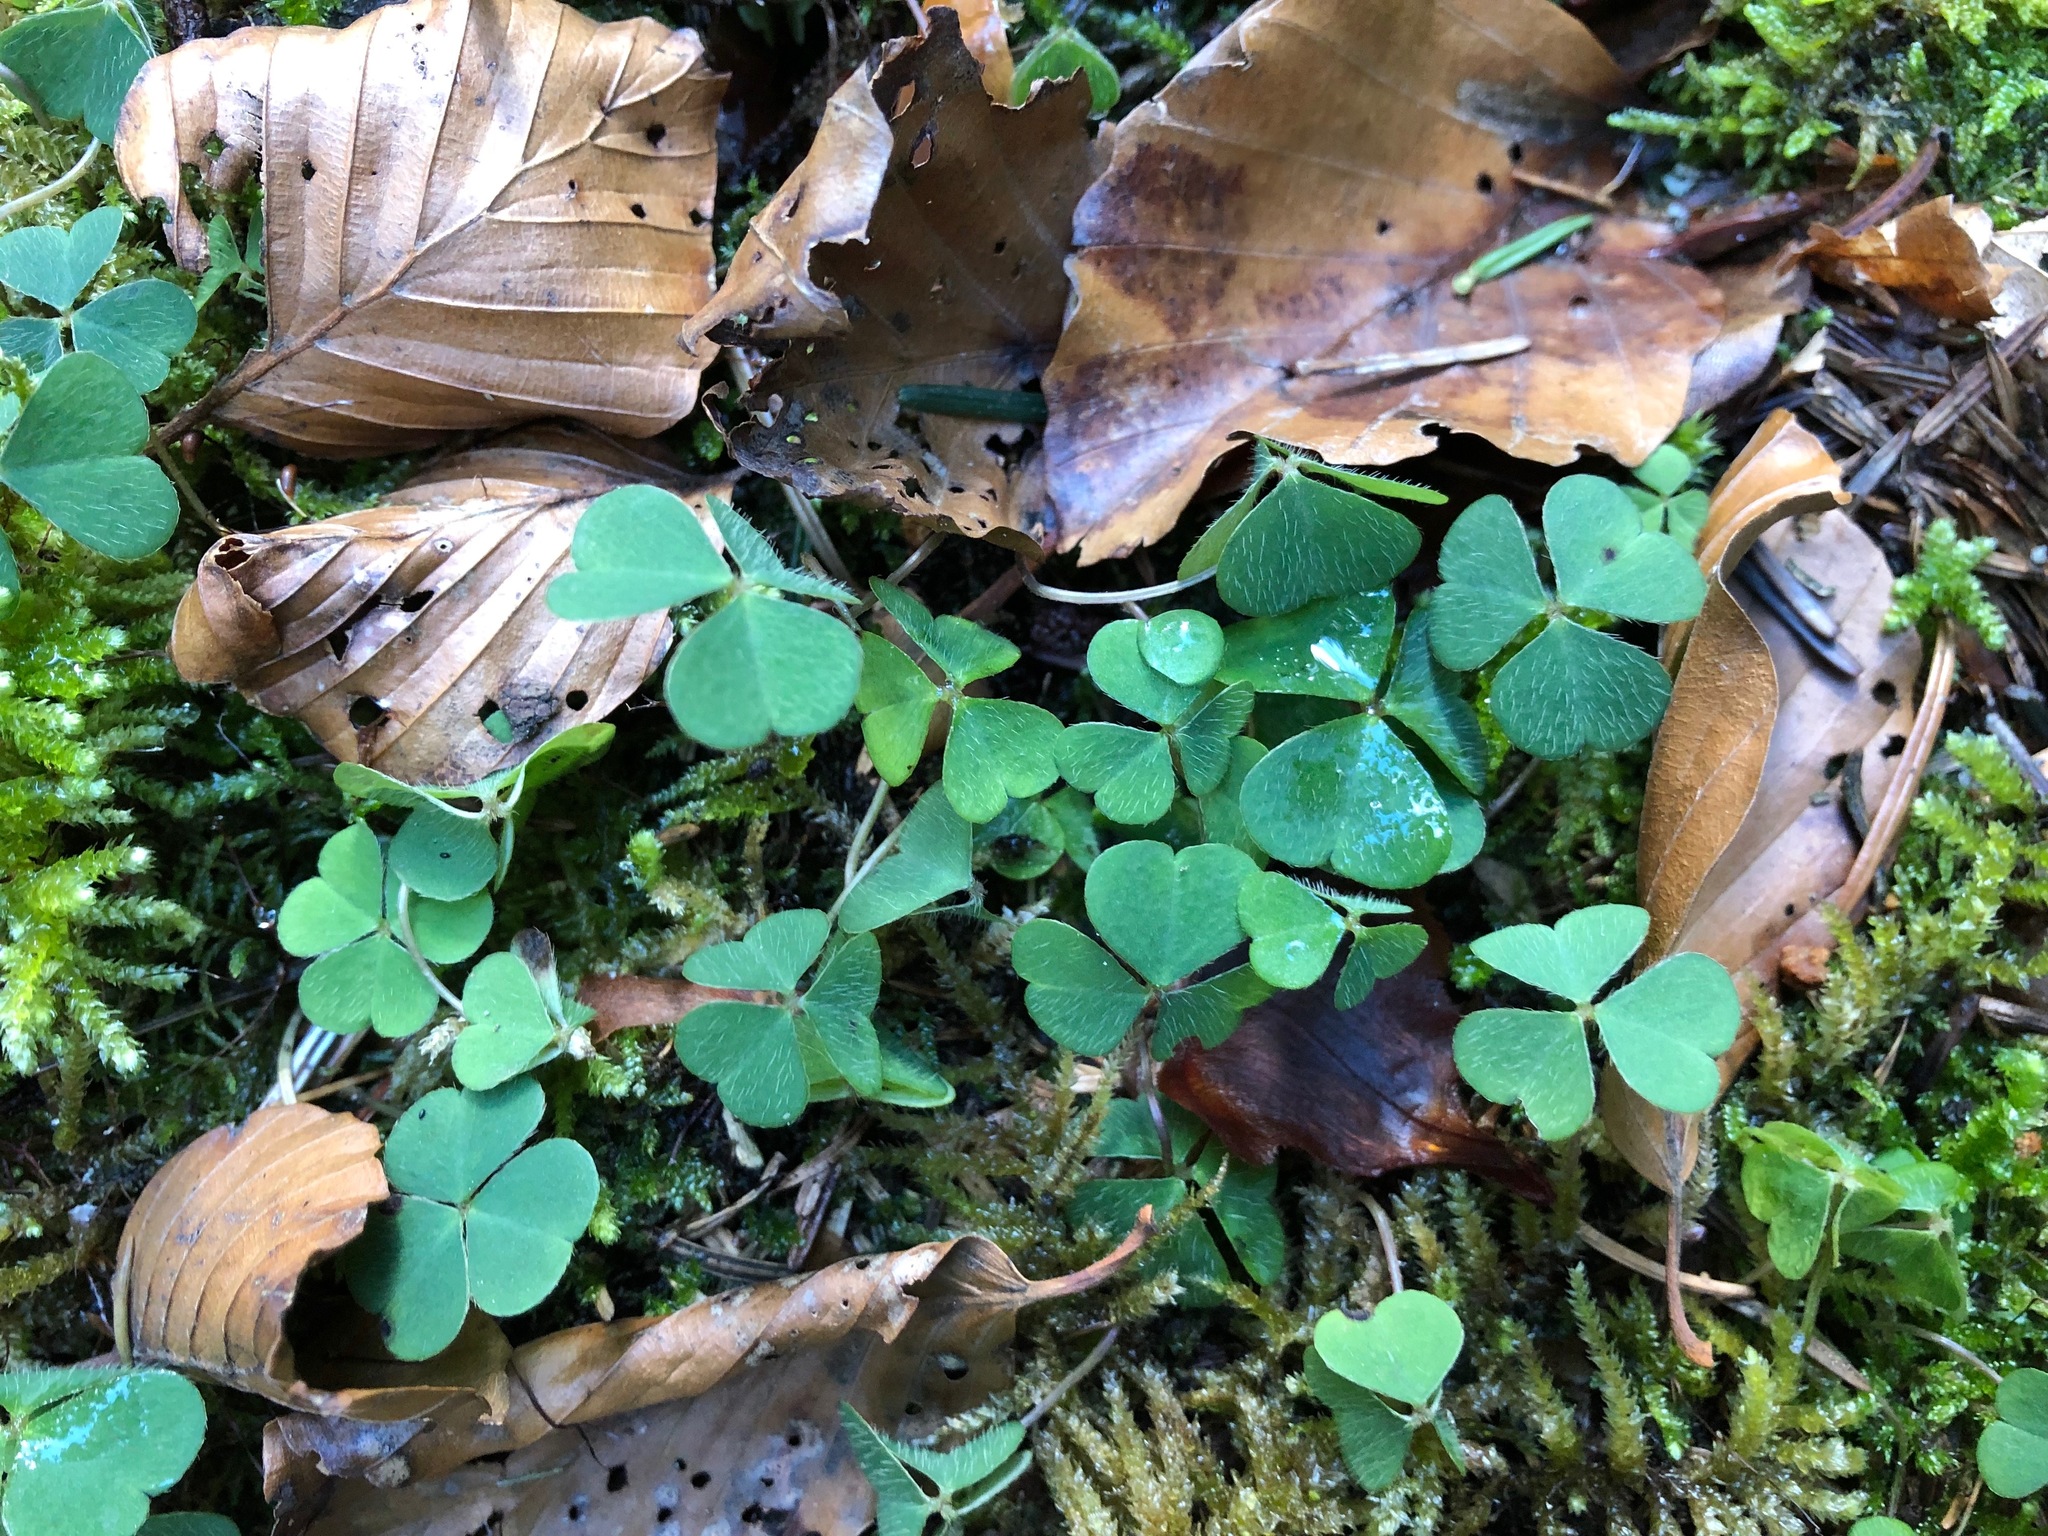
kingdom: Plantae
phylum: Tracheophyta
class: Magnoliopsida
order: Oxalidales
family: Oxalidaceae
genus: Oxalis
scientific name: Oxalis acetosella
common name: Wood-sorrel
